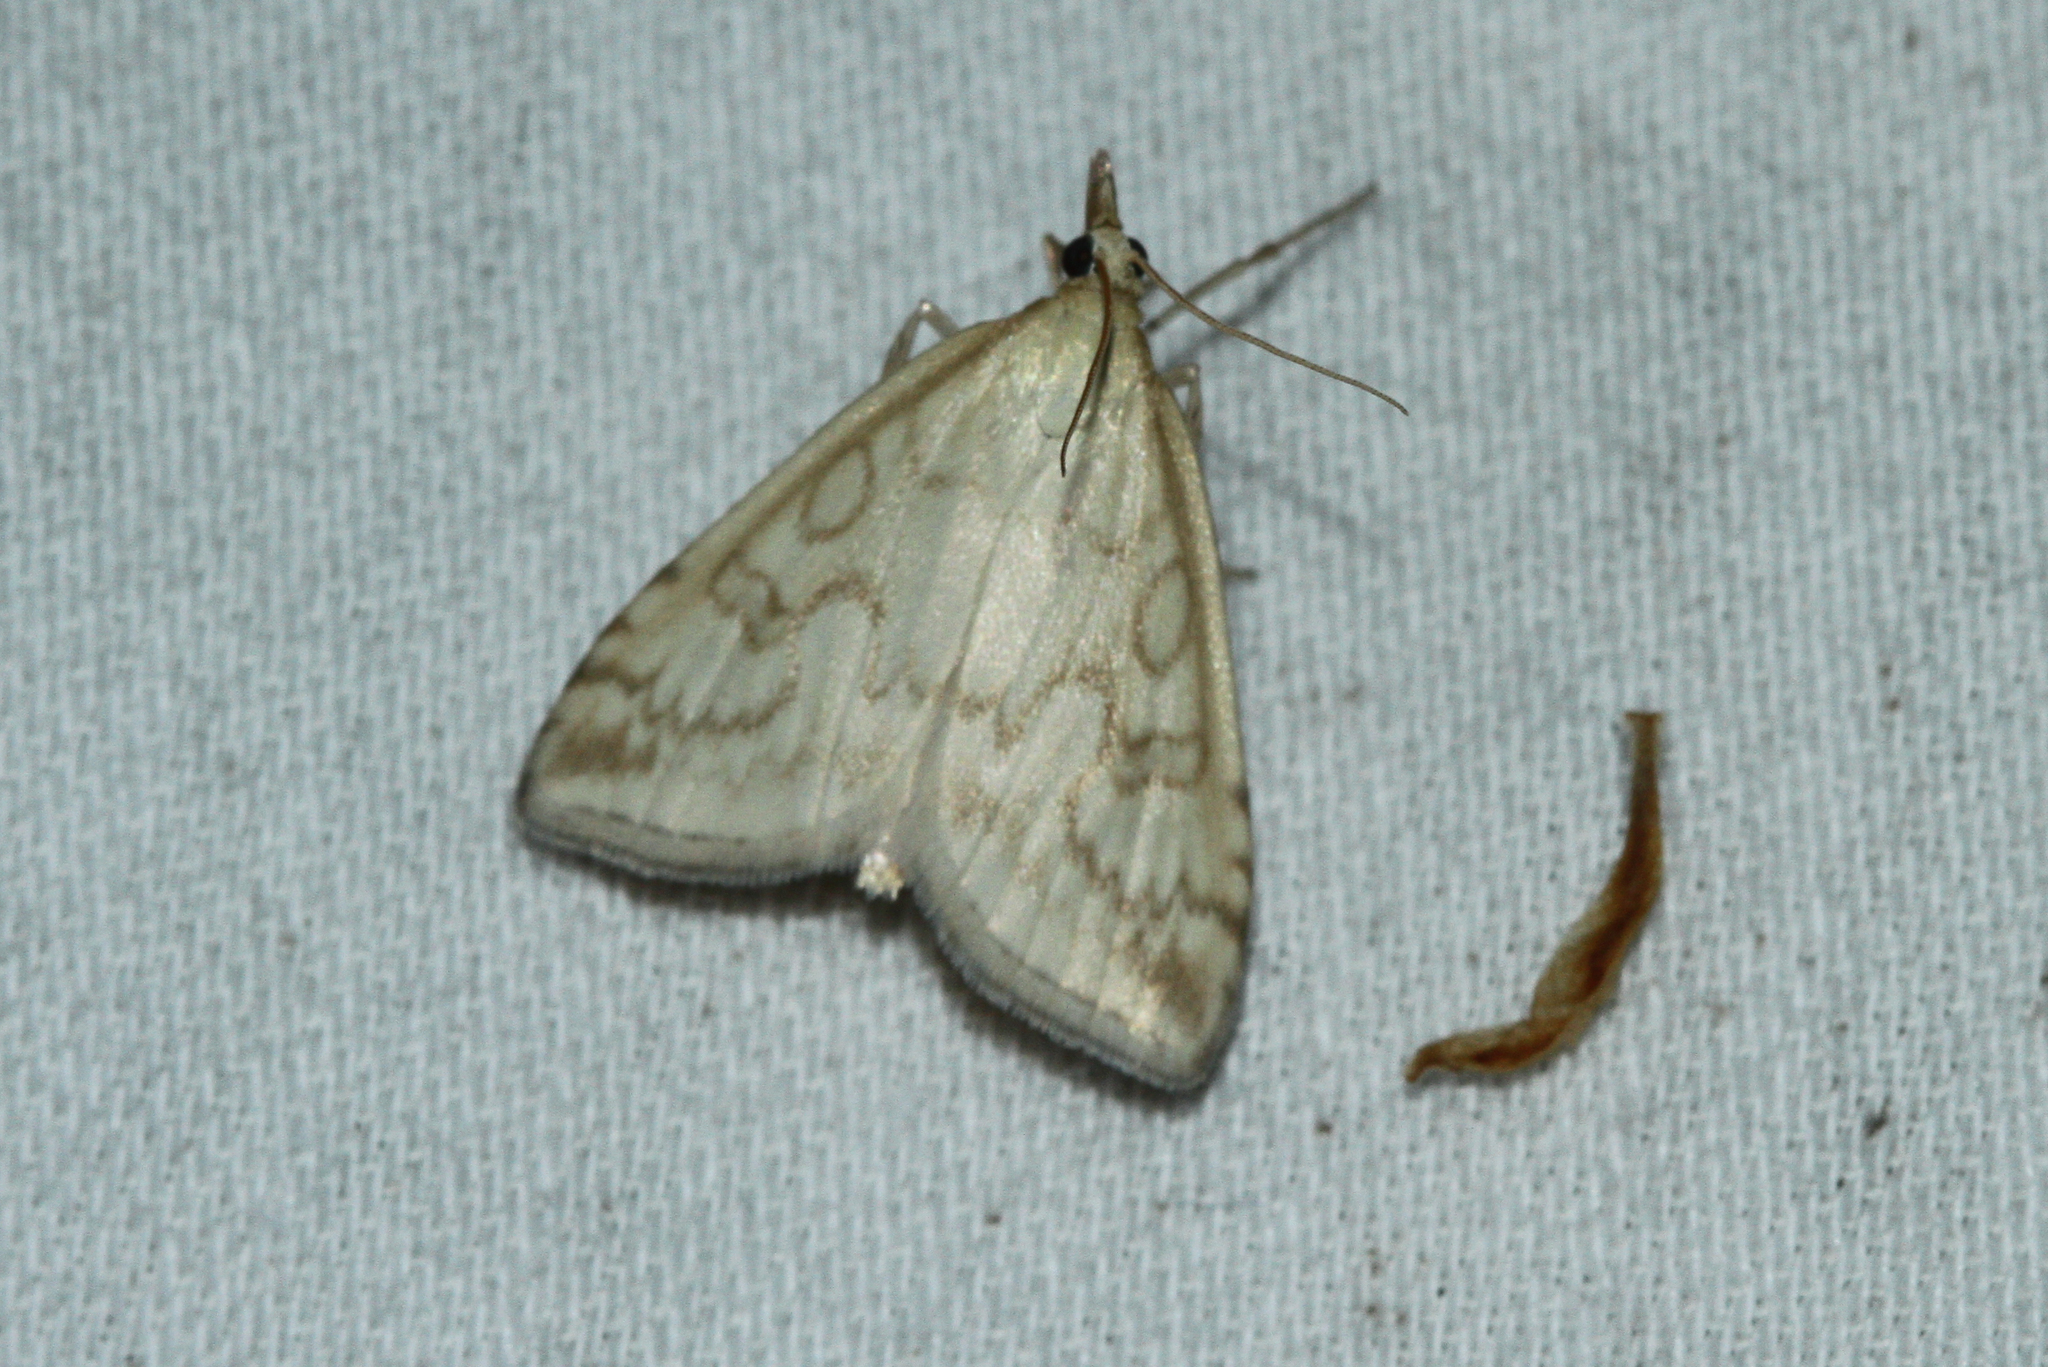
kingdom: Animalia
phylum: Arthropoda
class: Insecta
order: Lepidoptera
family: Crambidae
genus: Udea
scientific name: Udea lutealis
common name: Pale straw pearl
